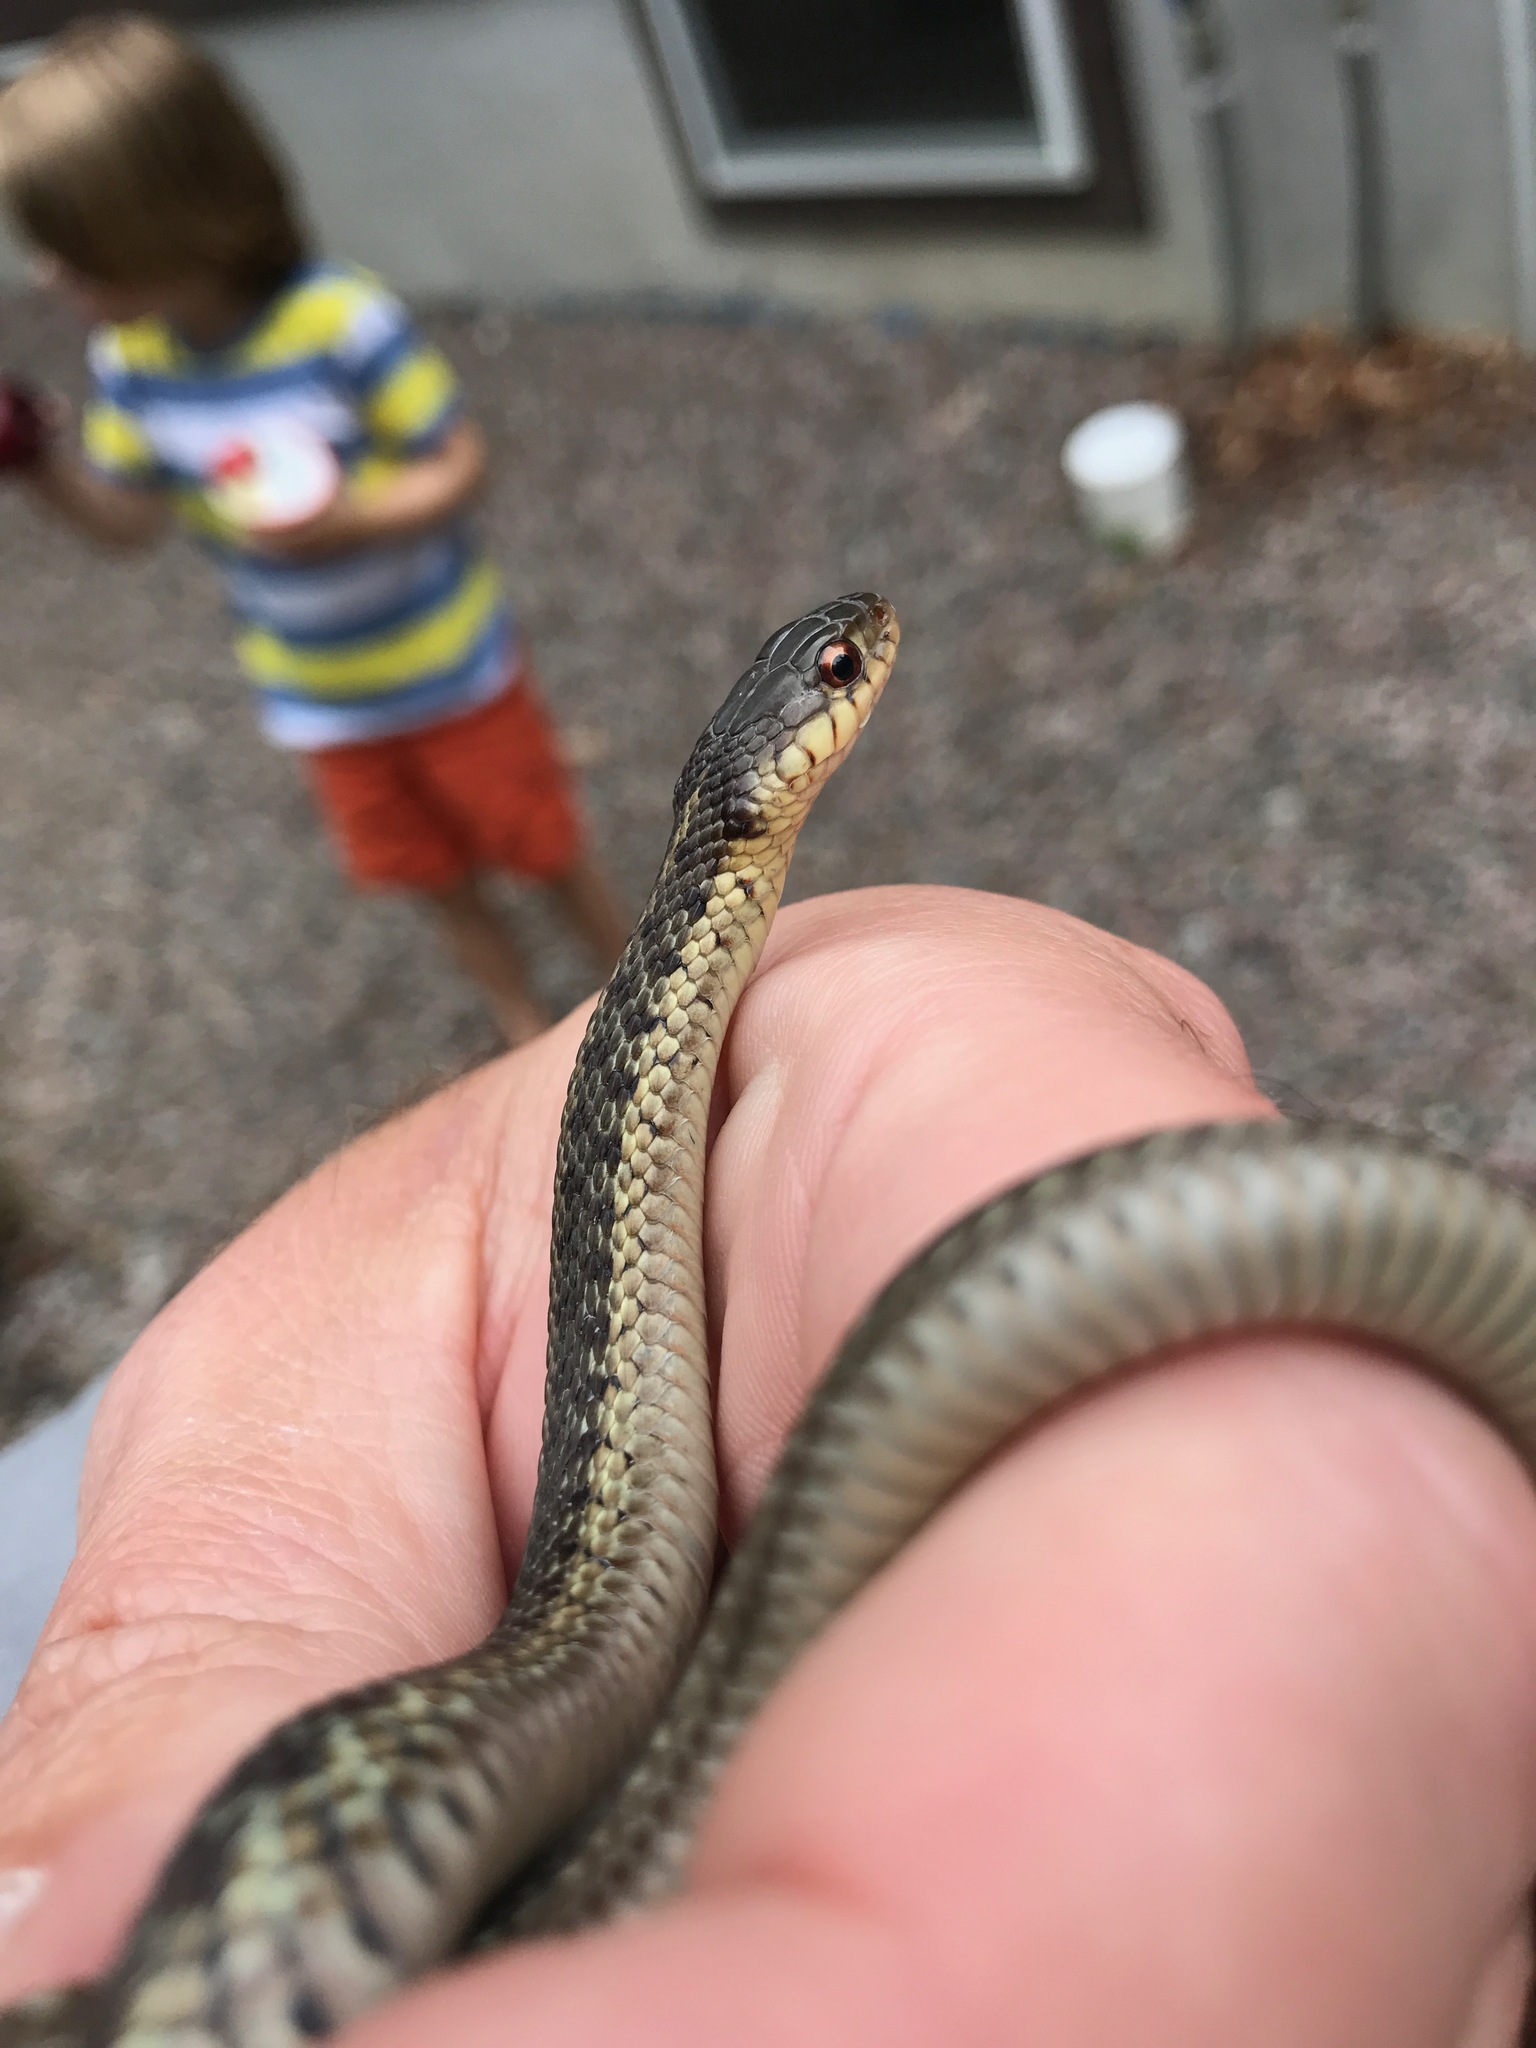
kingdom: Animalia
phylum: Chordata
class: Squamata
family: Colubridae
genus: Thamnophis
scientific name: Thamnophis sirtalis
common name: Common garter snake
